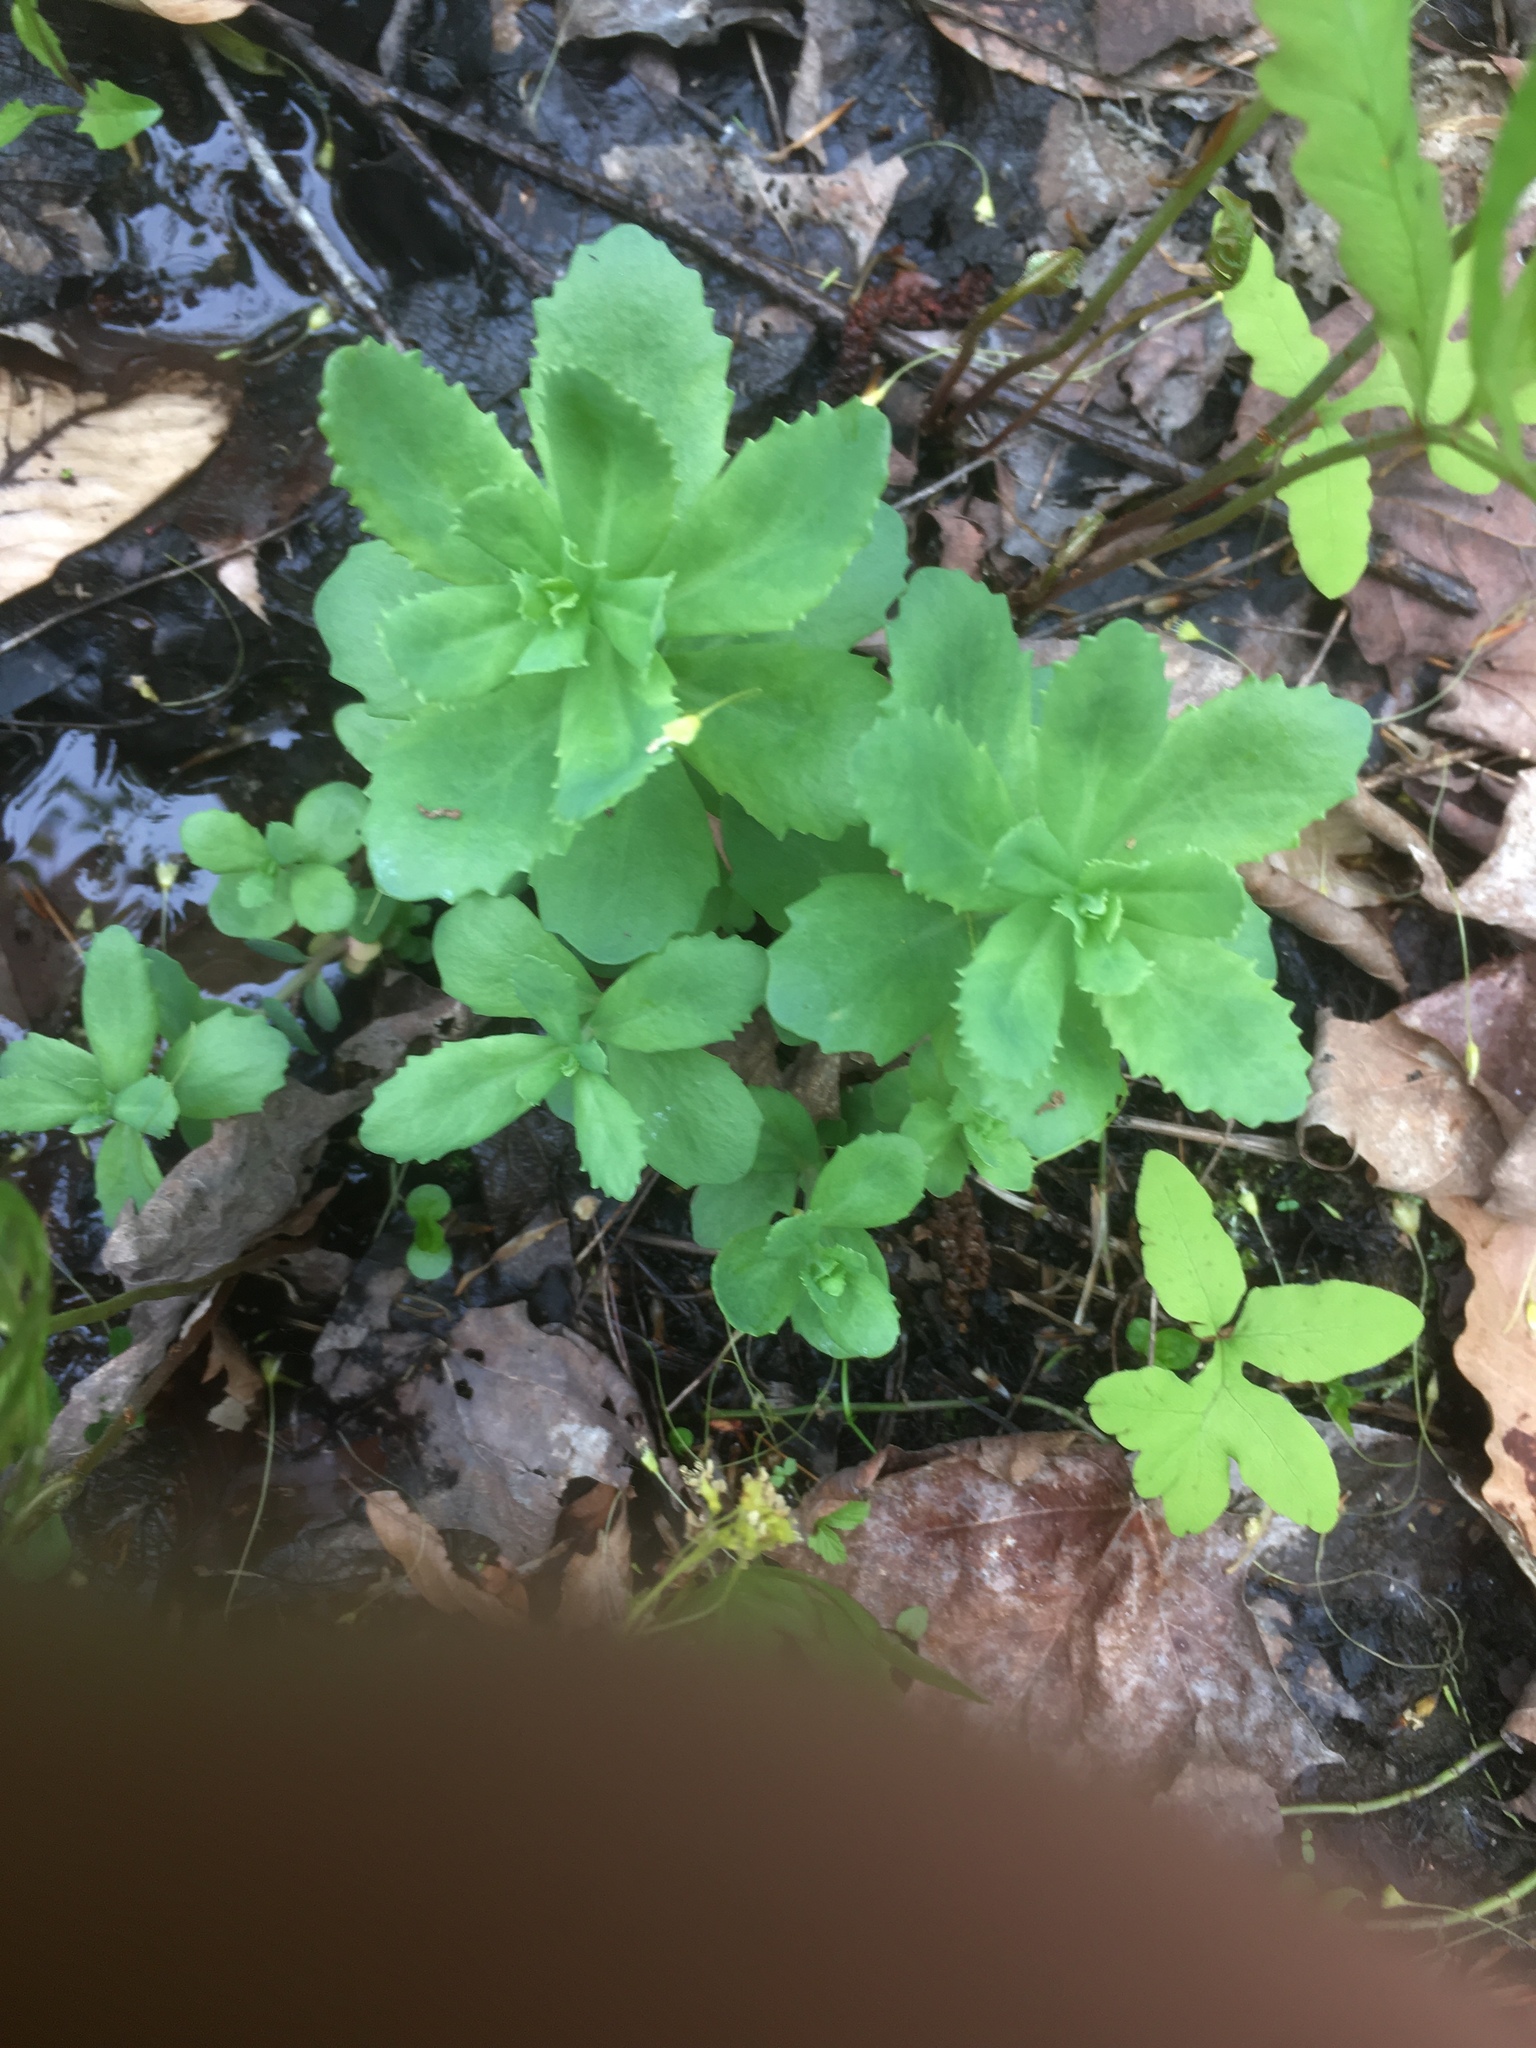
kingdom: Plantae
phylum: Tracheophyta
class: Magnoliopsida
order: Saxifragales
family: Crassulaceae
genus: Hylotelephium
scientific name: Hylotelephium telephium
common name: Live-forever
